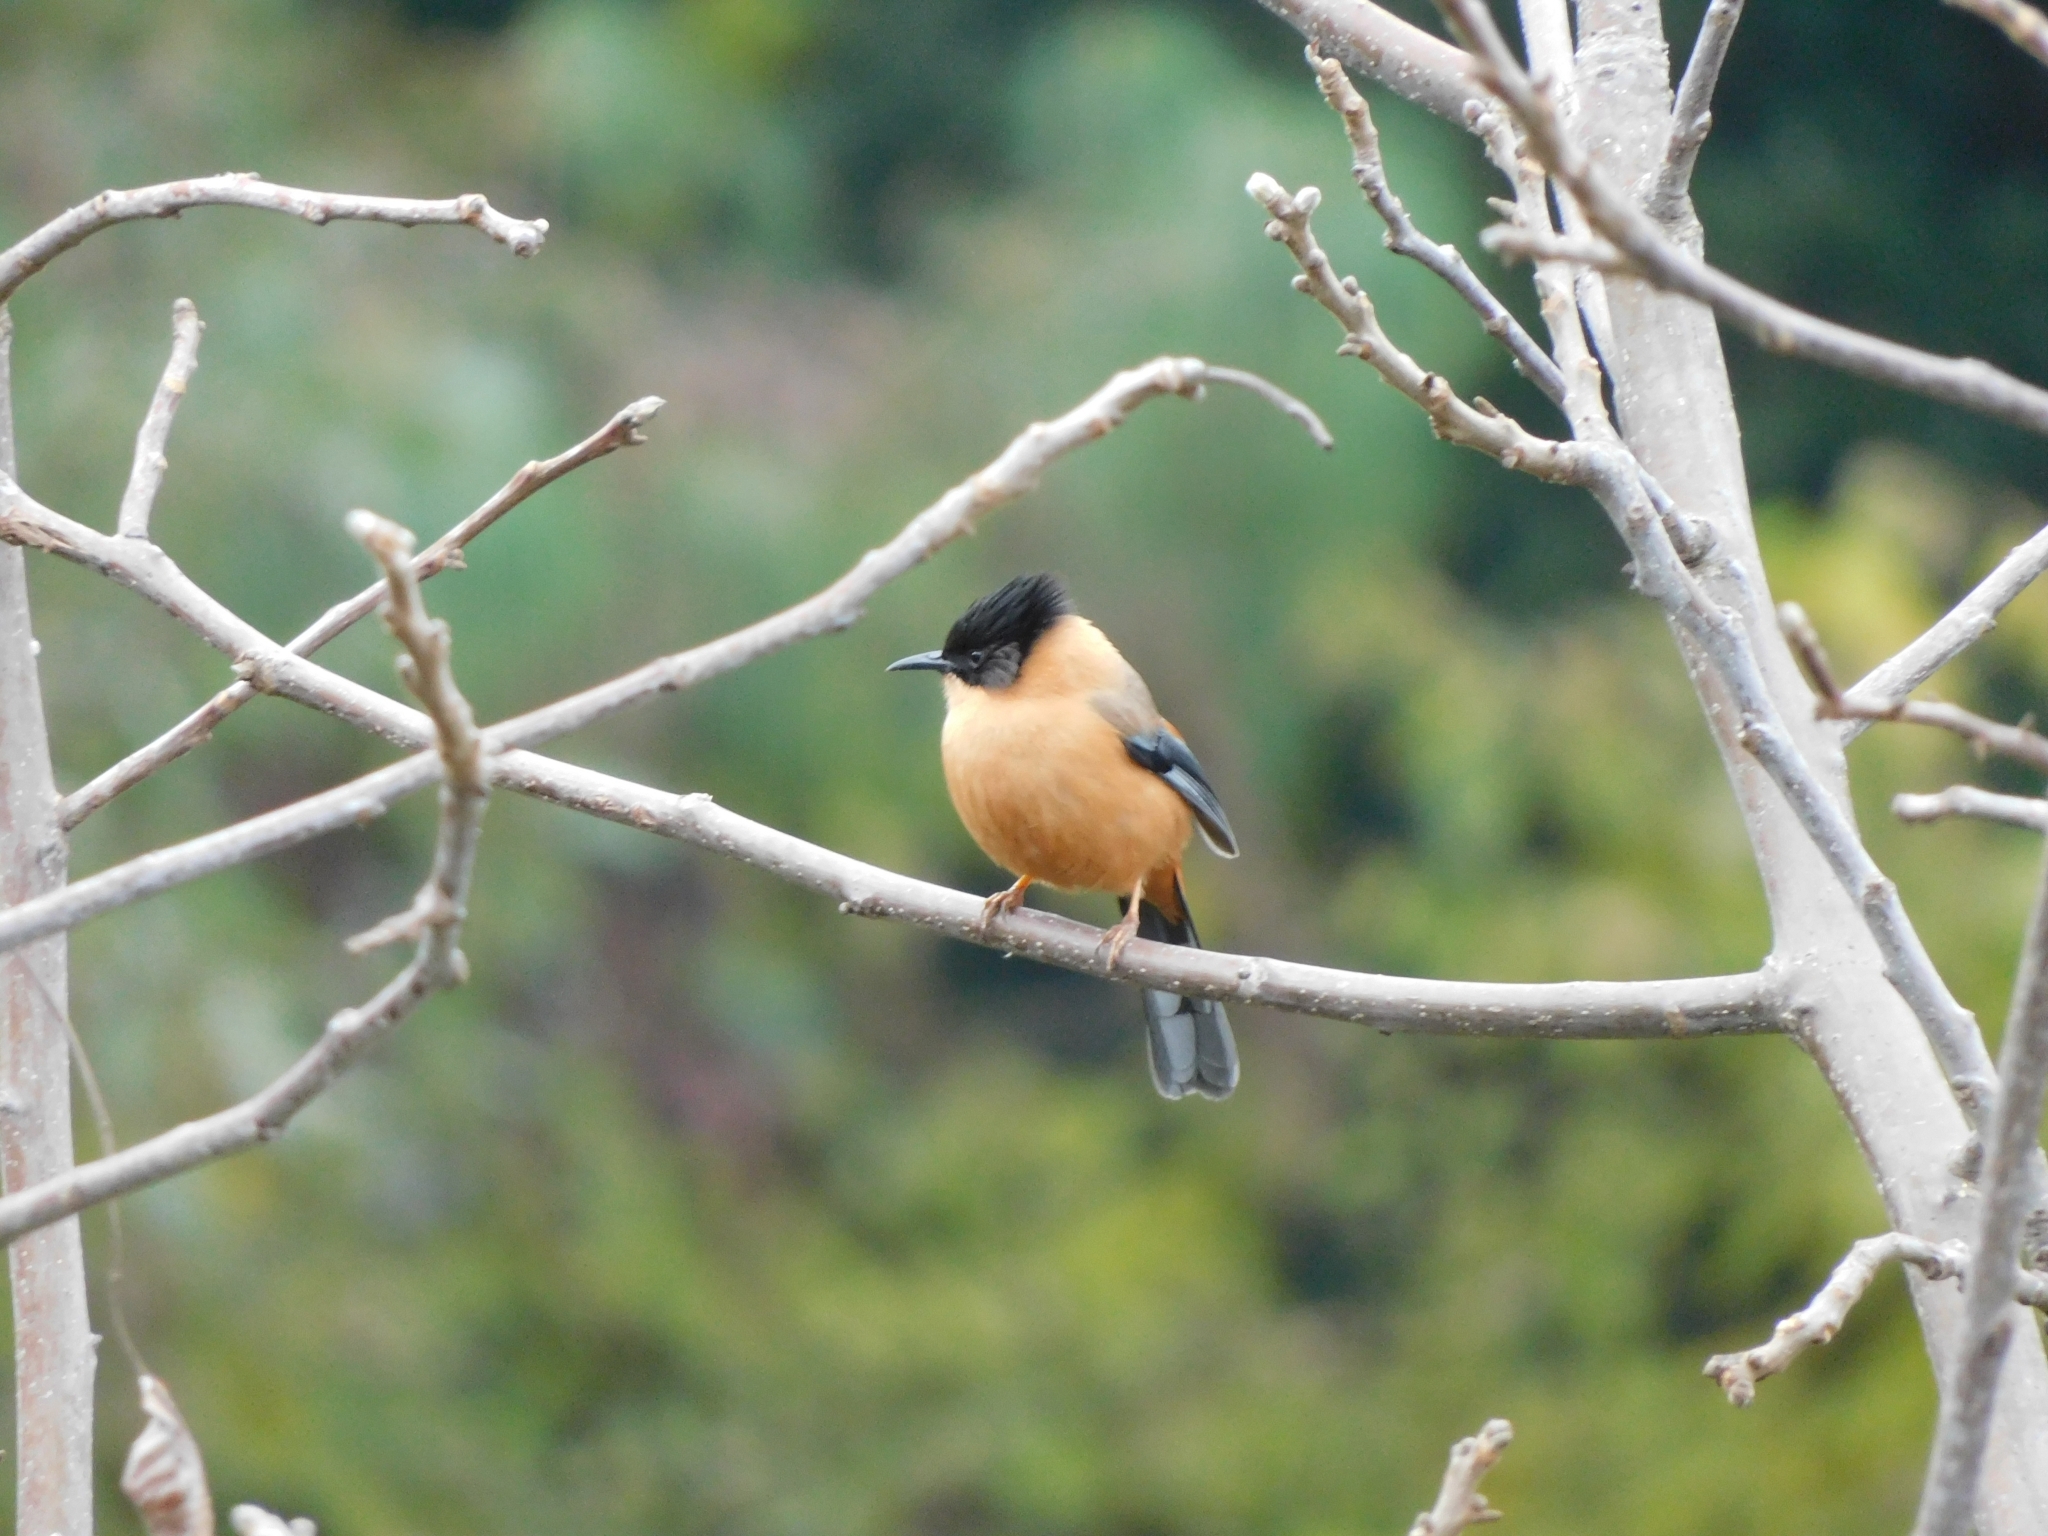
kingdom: Animalia
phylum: Chordata
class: Aves
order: Passeriformes
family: Leiothrichidae
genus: Heterophasia
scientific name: Heterophasia capistrata
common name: Rufous sibia
